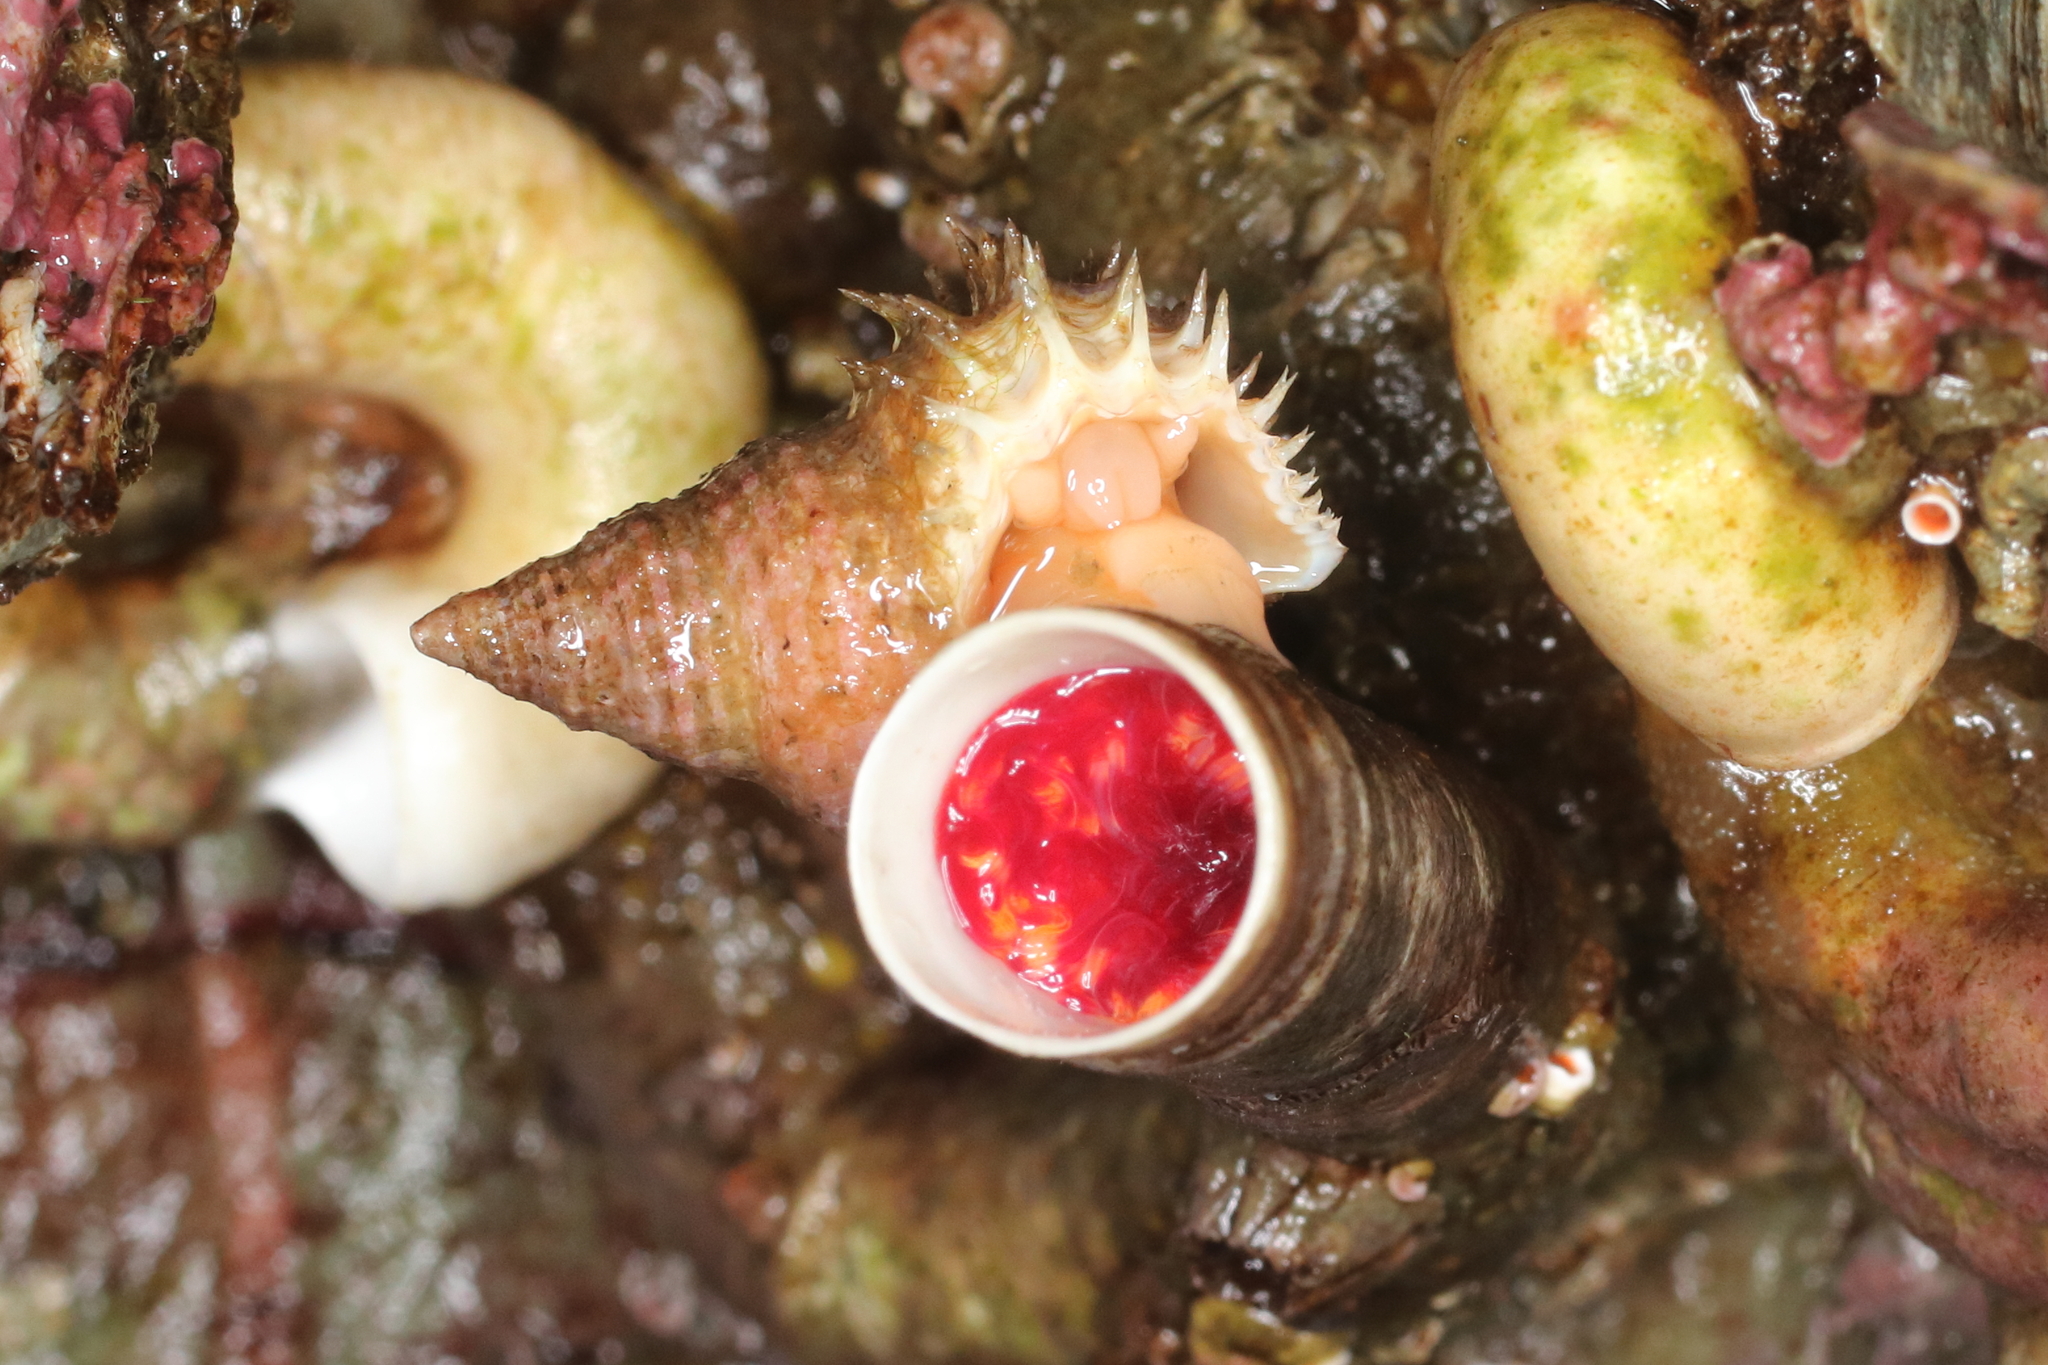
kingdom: Animalia
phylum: Mollusca
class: Gastropoda
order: Littorinimorpha
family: Capulidae
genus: Trichotropis
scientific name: Trichotropis cancellata
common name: Cancellate hairysnail
